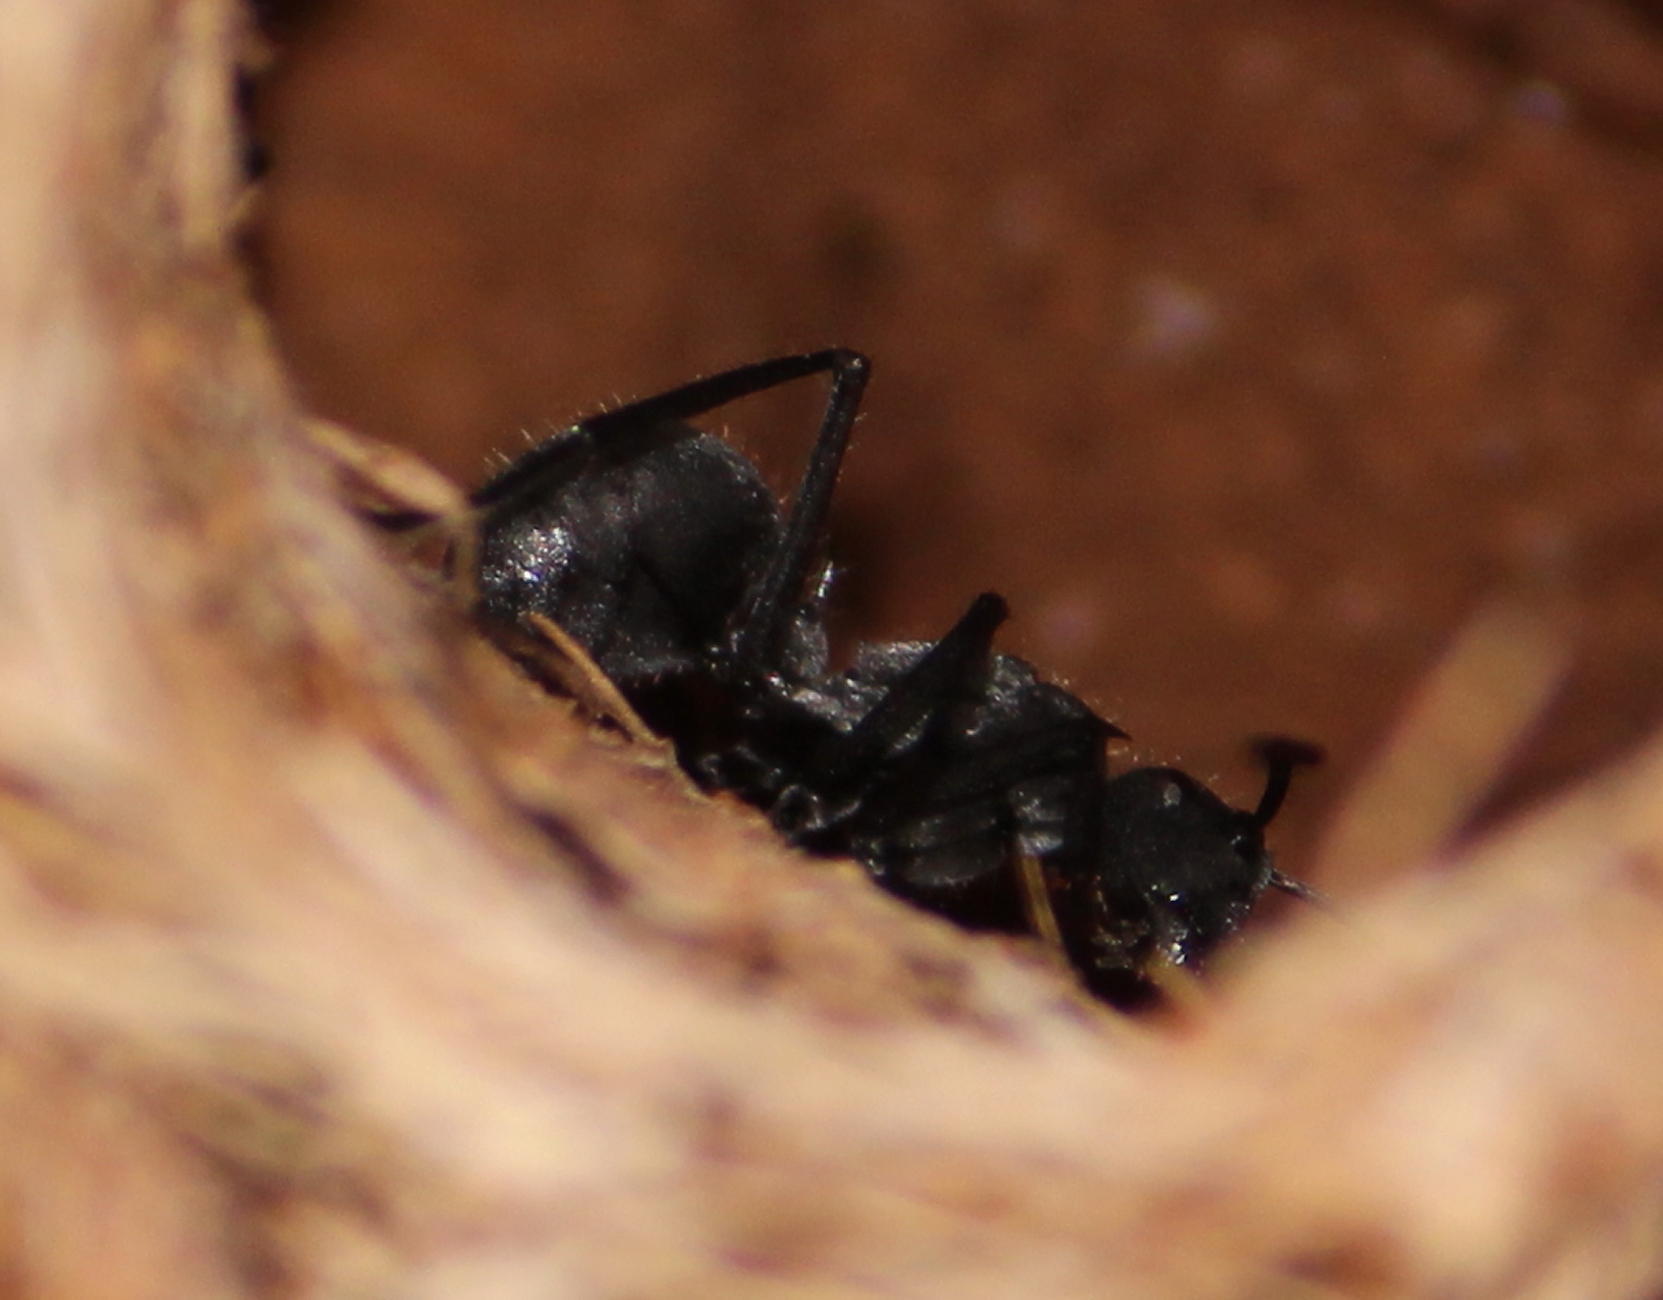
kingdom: Animalia
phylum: Arthropoda
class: Insecta
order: Hymenoptera
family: Formicidae
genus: Polyrhachis
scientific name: Polyrhachis schistacea
